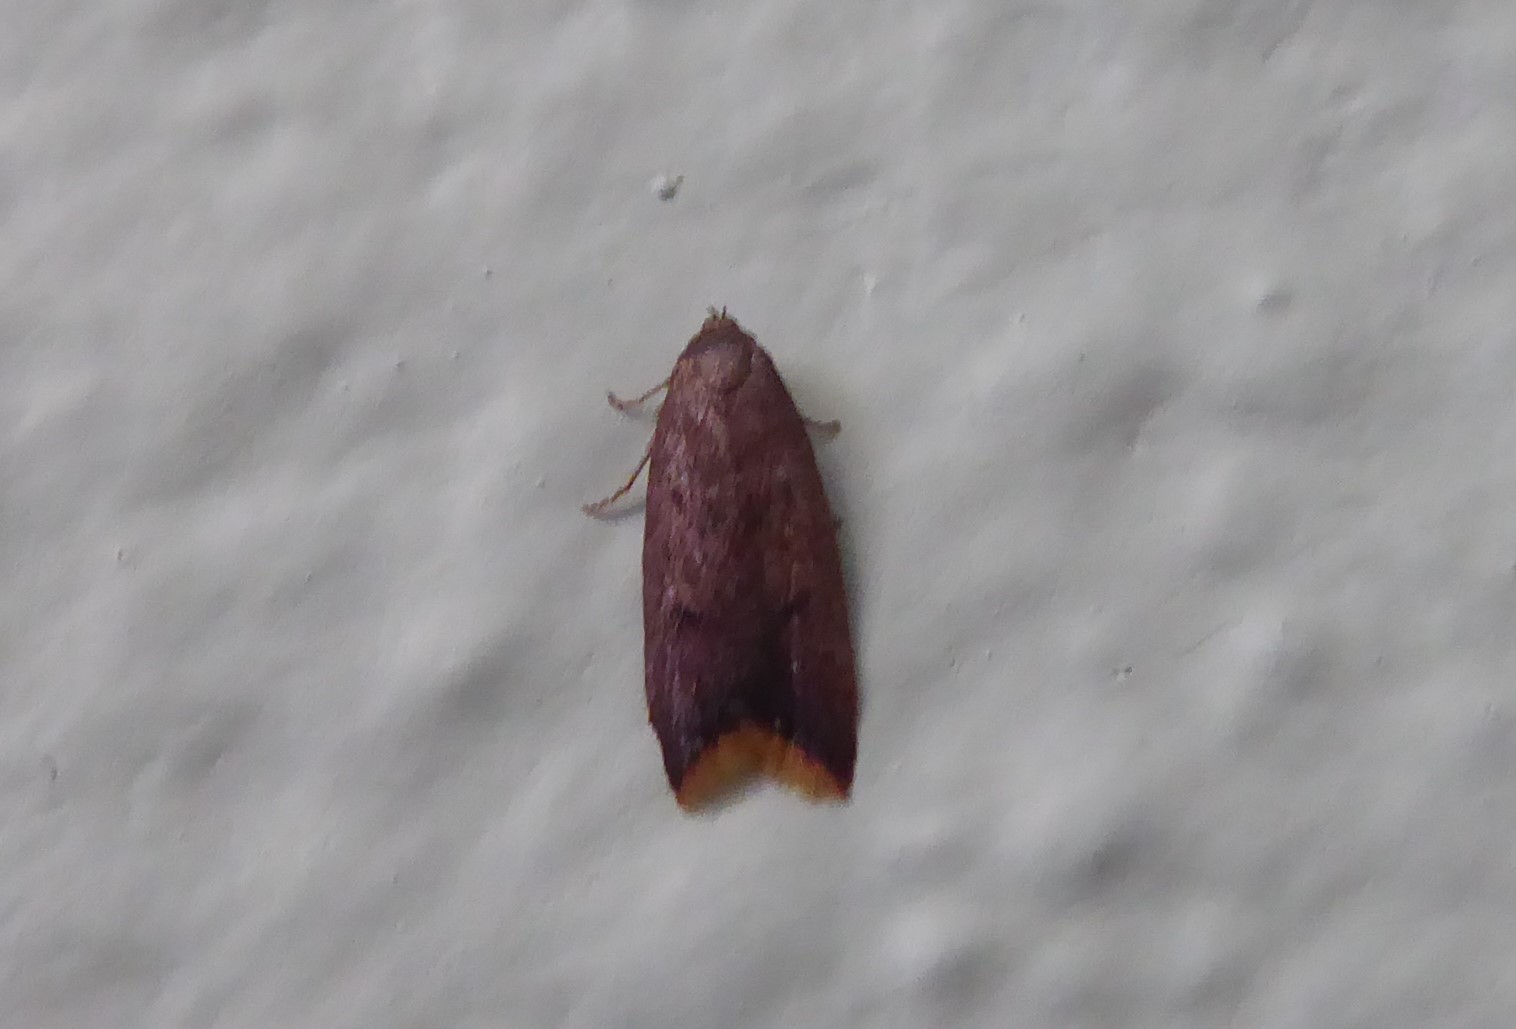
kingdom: Animalia
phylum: Arthropoda
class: Insecta
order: Lepidoptera
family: Oecophoridae
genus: Tachystola
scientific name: Tachystola acroxantha
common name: Ruddy streak
